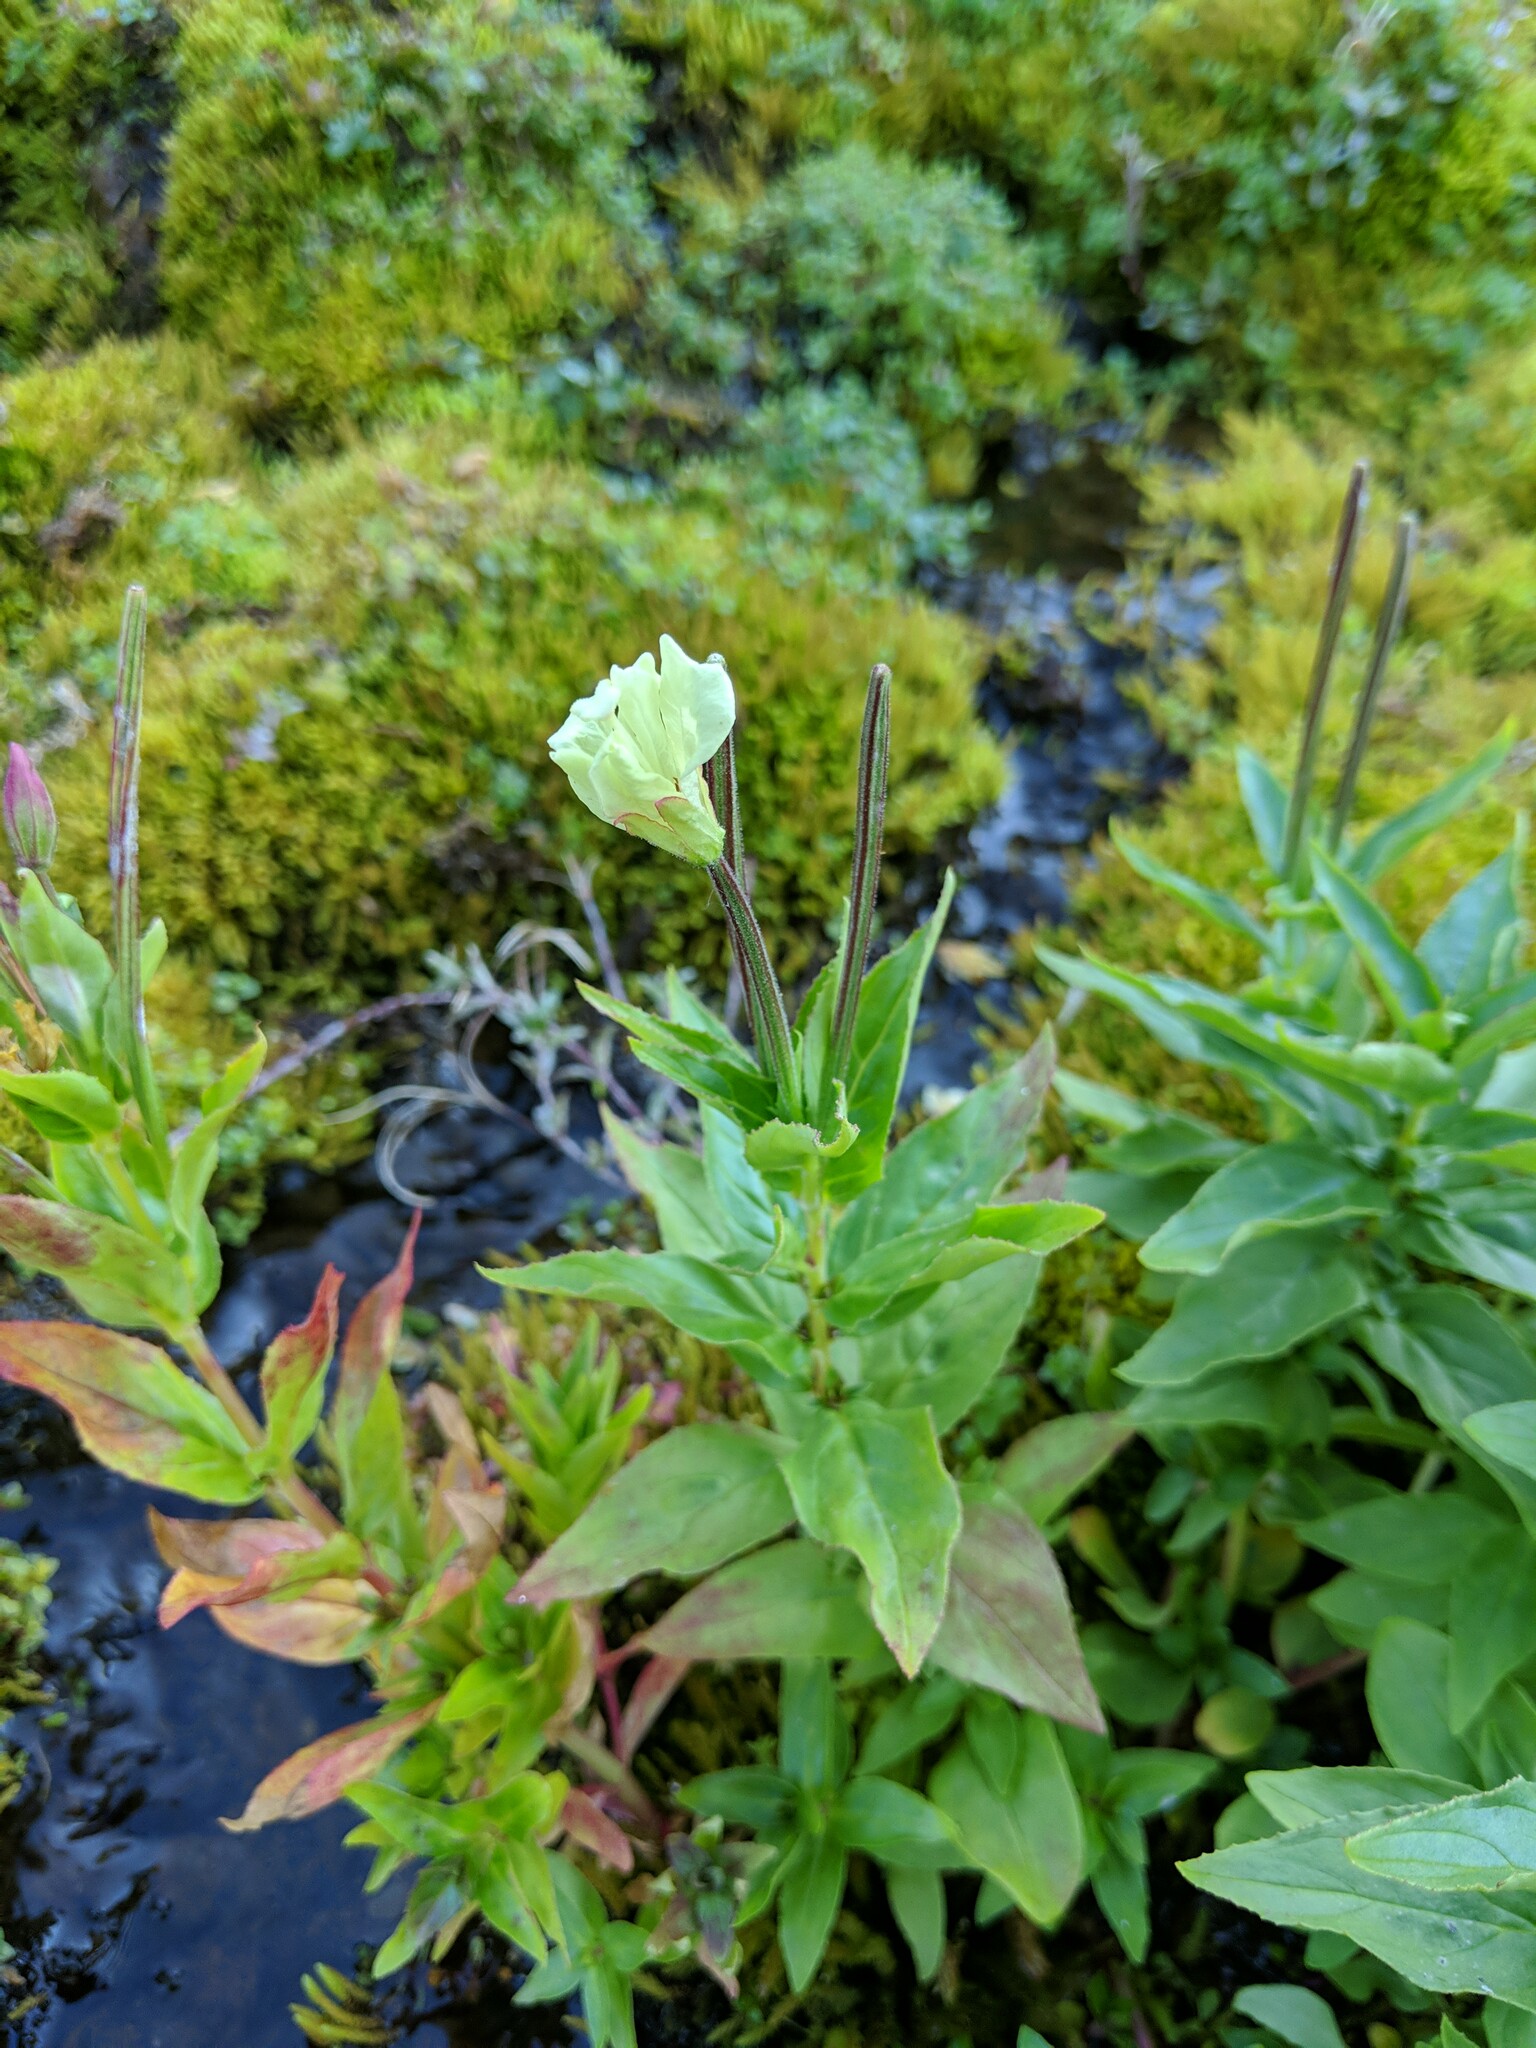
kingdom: Plantae
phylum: Tracheophyta
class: Magnoliopsida
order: Myrtales
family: Onagraceae
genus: Epilobium
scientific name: Epilobium luteum
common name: Yellow willowherb
